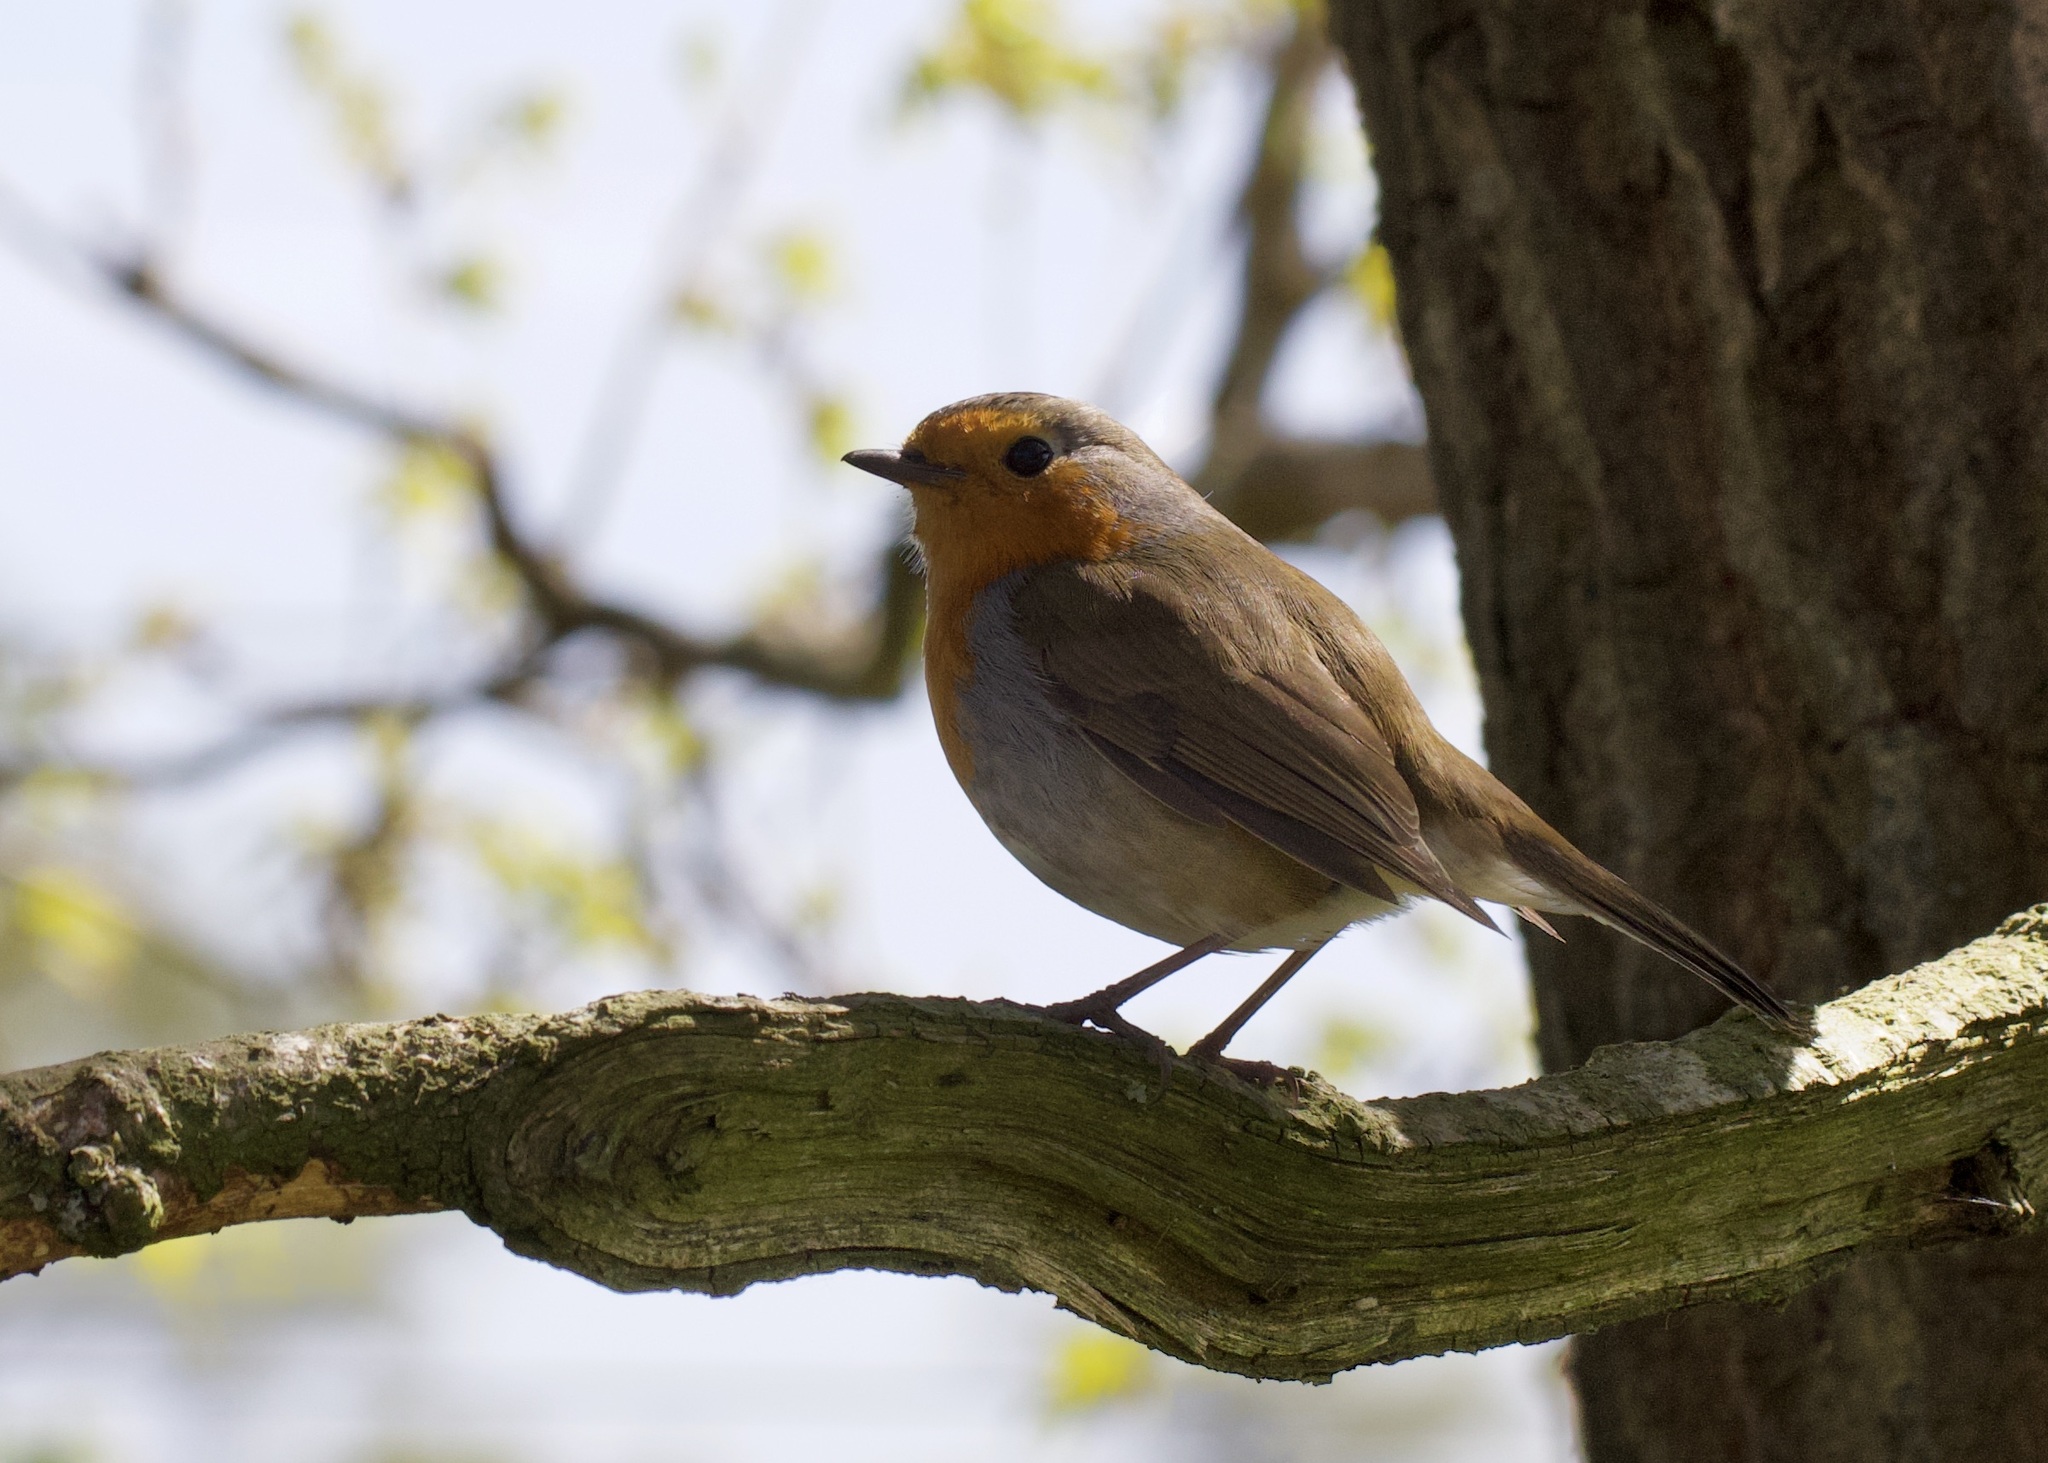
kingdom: Animalia
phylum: Chordata
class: Aves
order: Passeriformes
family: Muscicapidae
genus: Erithacus
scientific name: Erithacus rubecula
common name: European robin
